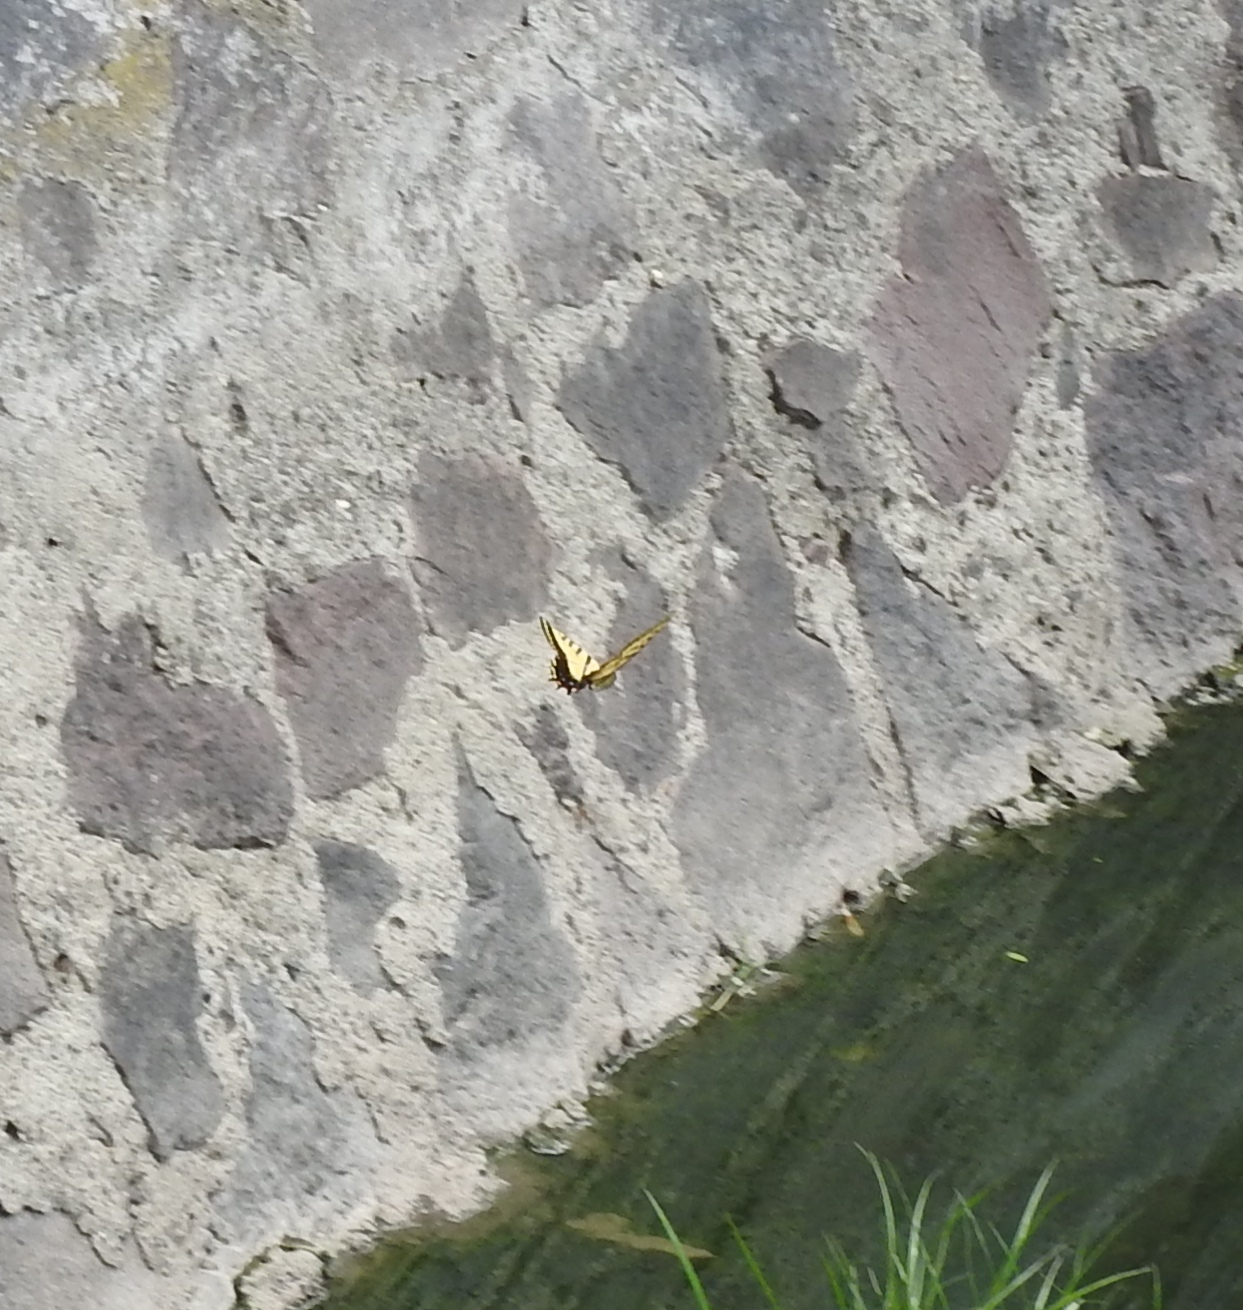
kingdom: Animalia
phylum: Arthropoda
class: Insecta
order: Lepidoptera
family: Papilionidae
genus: Papilio
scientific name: Papilio multicaudata
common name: Two-tailed tiger swallowtail
